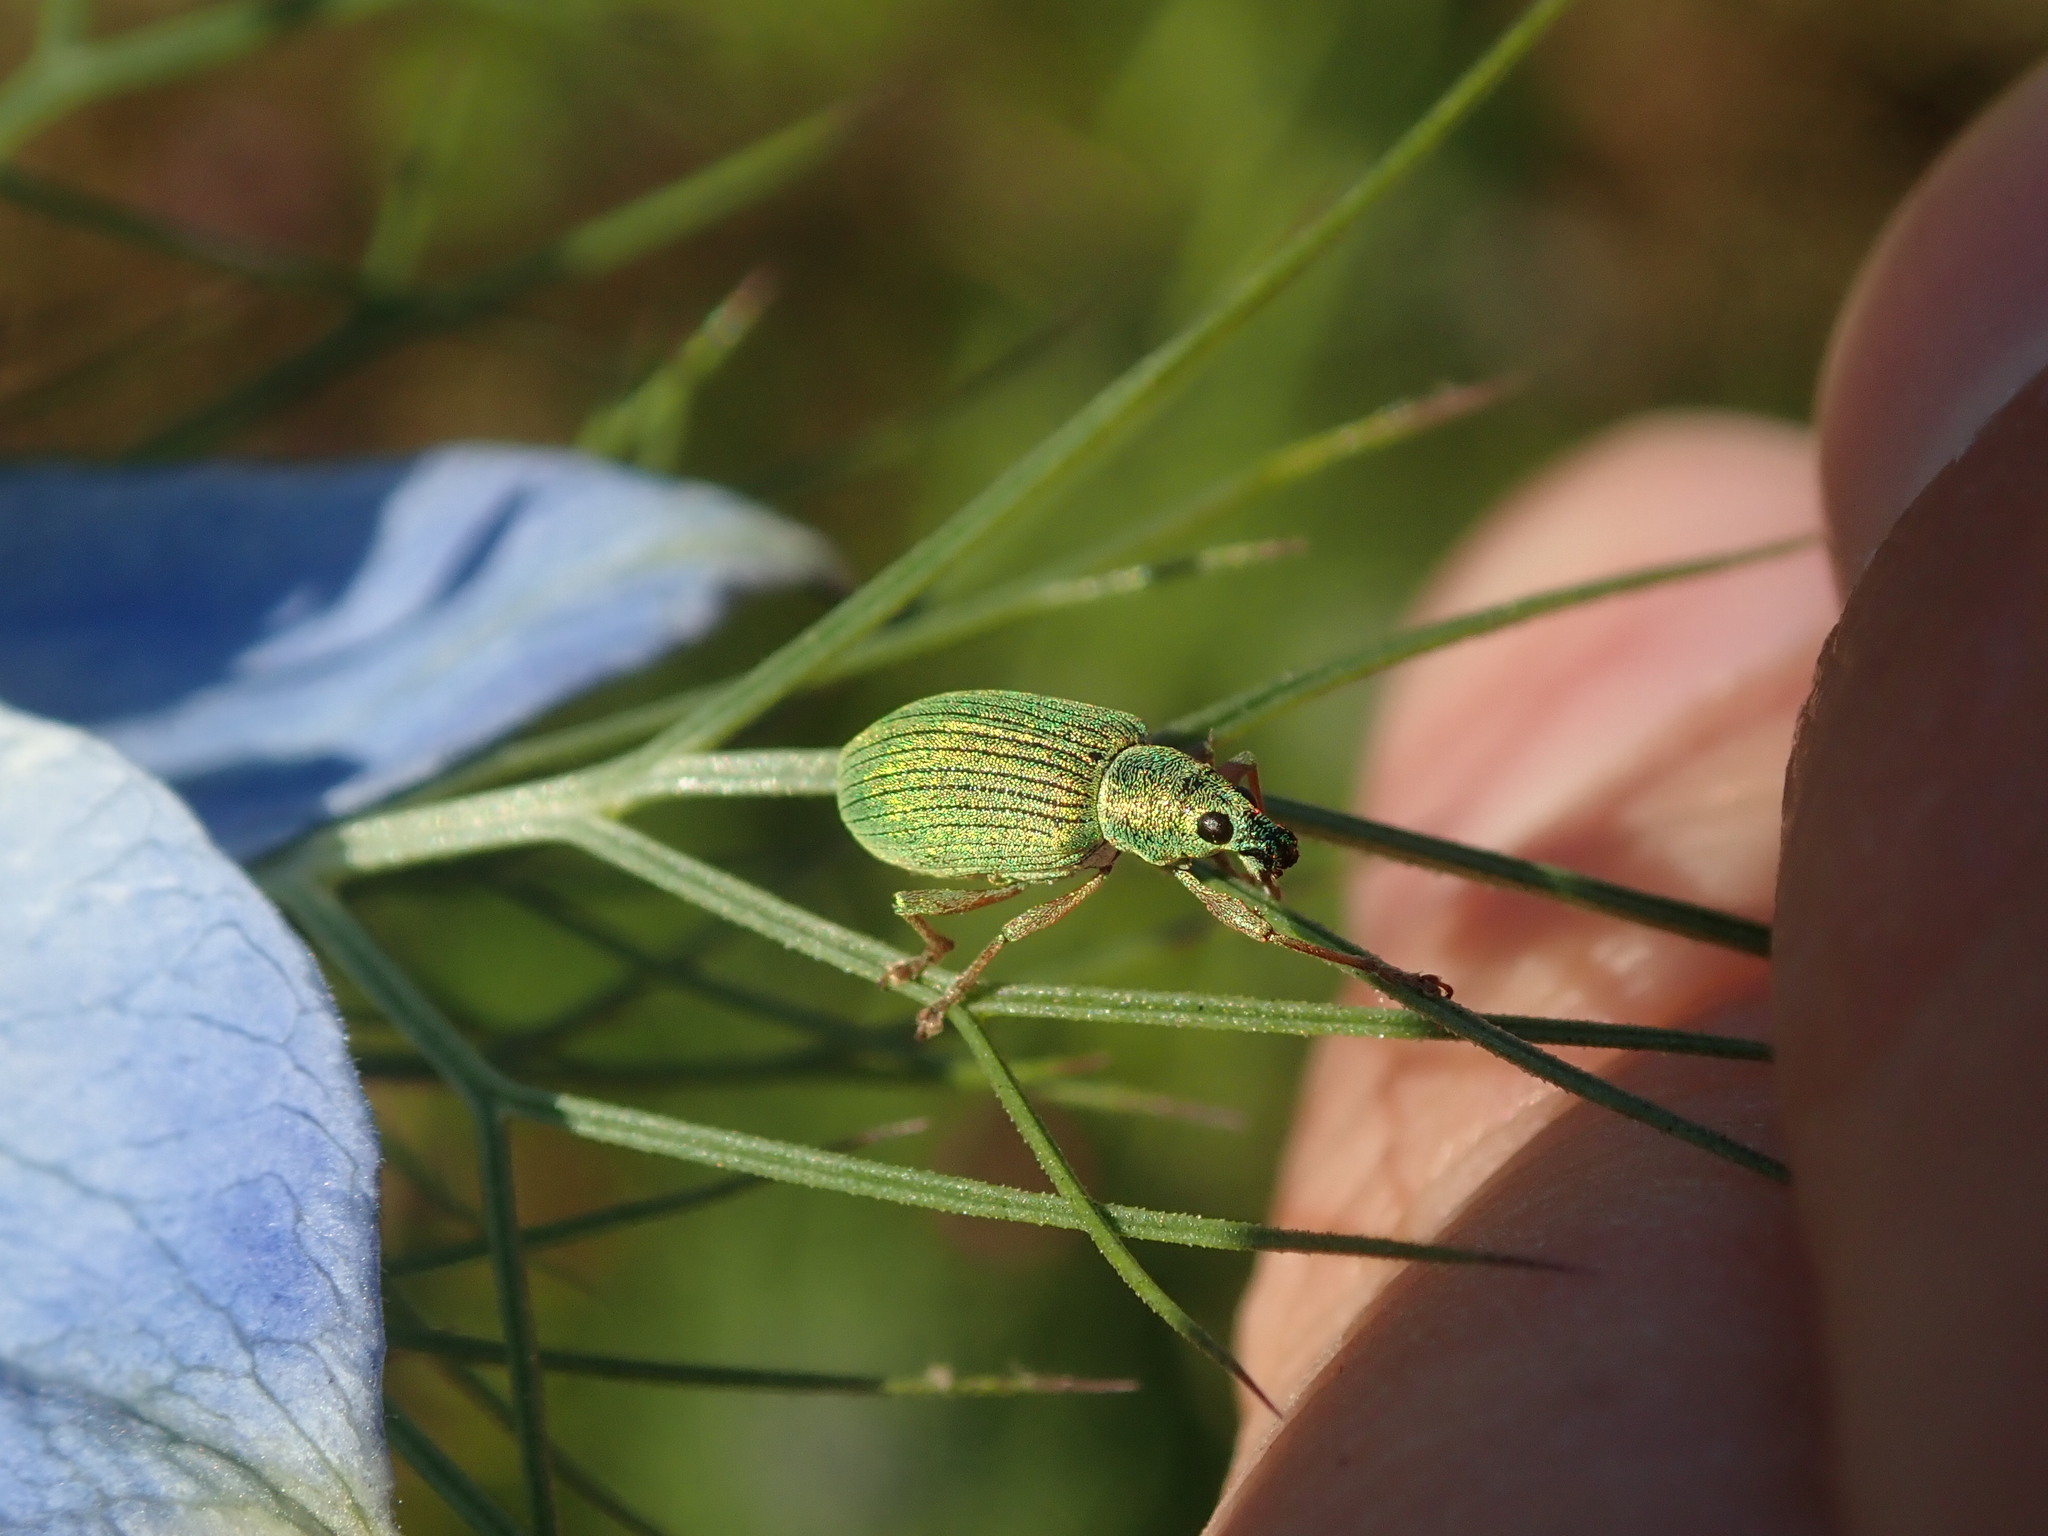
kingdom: Animalia
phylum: Arthropoda
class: Insecta
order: Coleoptera
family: Curculionidae
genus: Polydrusus
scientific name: Polydrusus formosus
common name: Weevil
